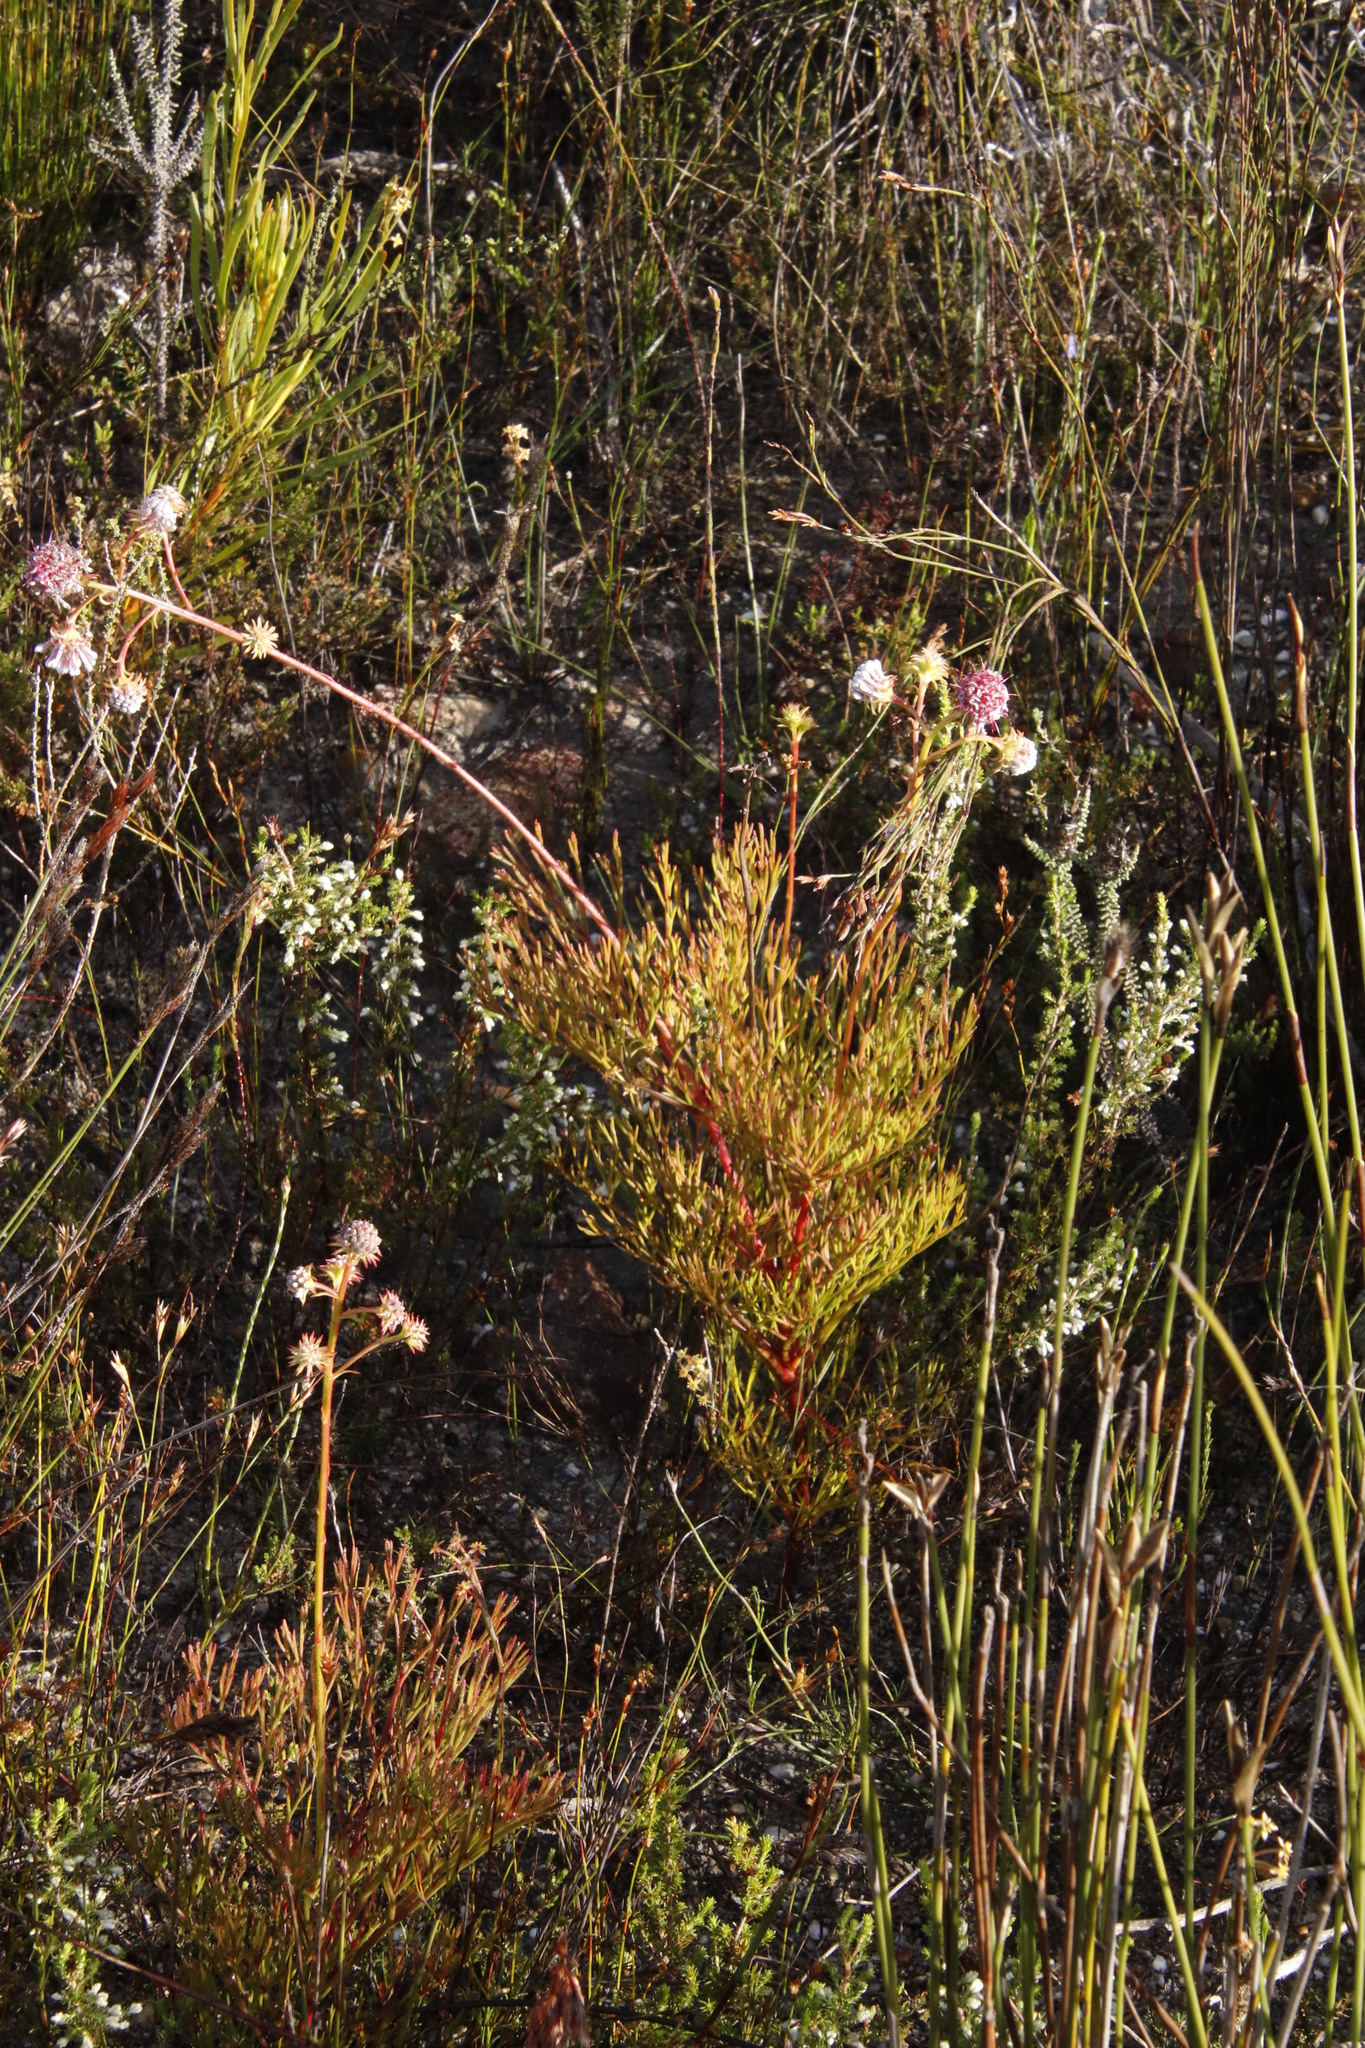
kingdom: Plantae
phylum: Tracheophyta
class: Magnoliopsida
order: Proteales
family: Proteaceae
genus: Serruria
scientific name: Serruria elongata
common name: Long-stalk spiderhead
